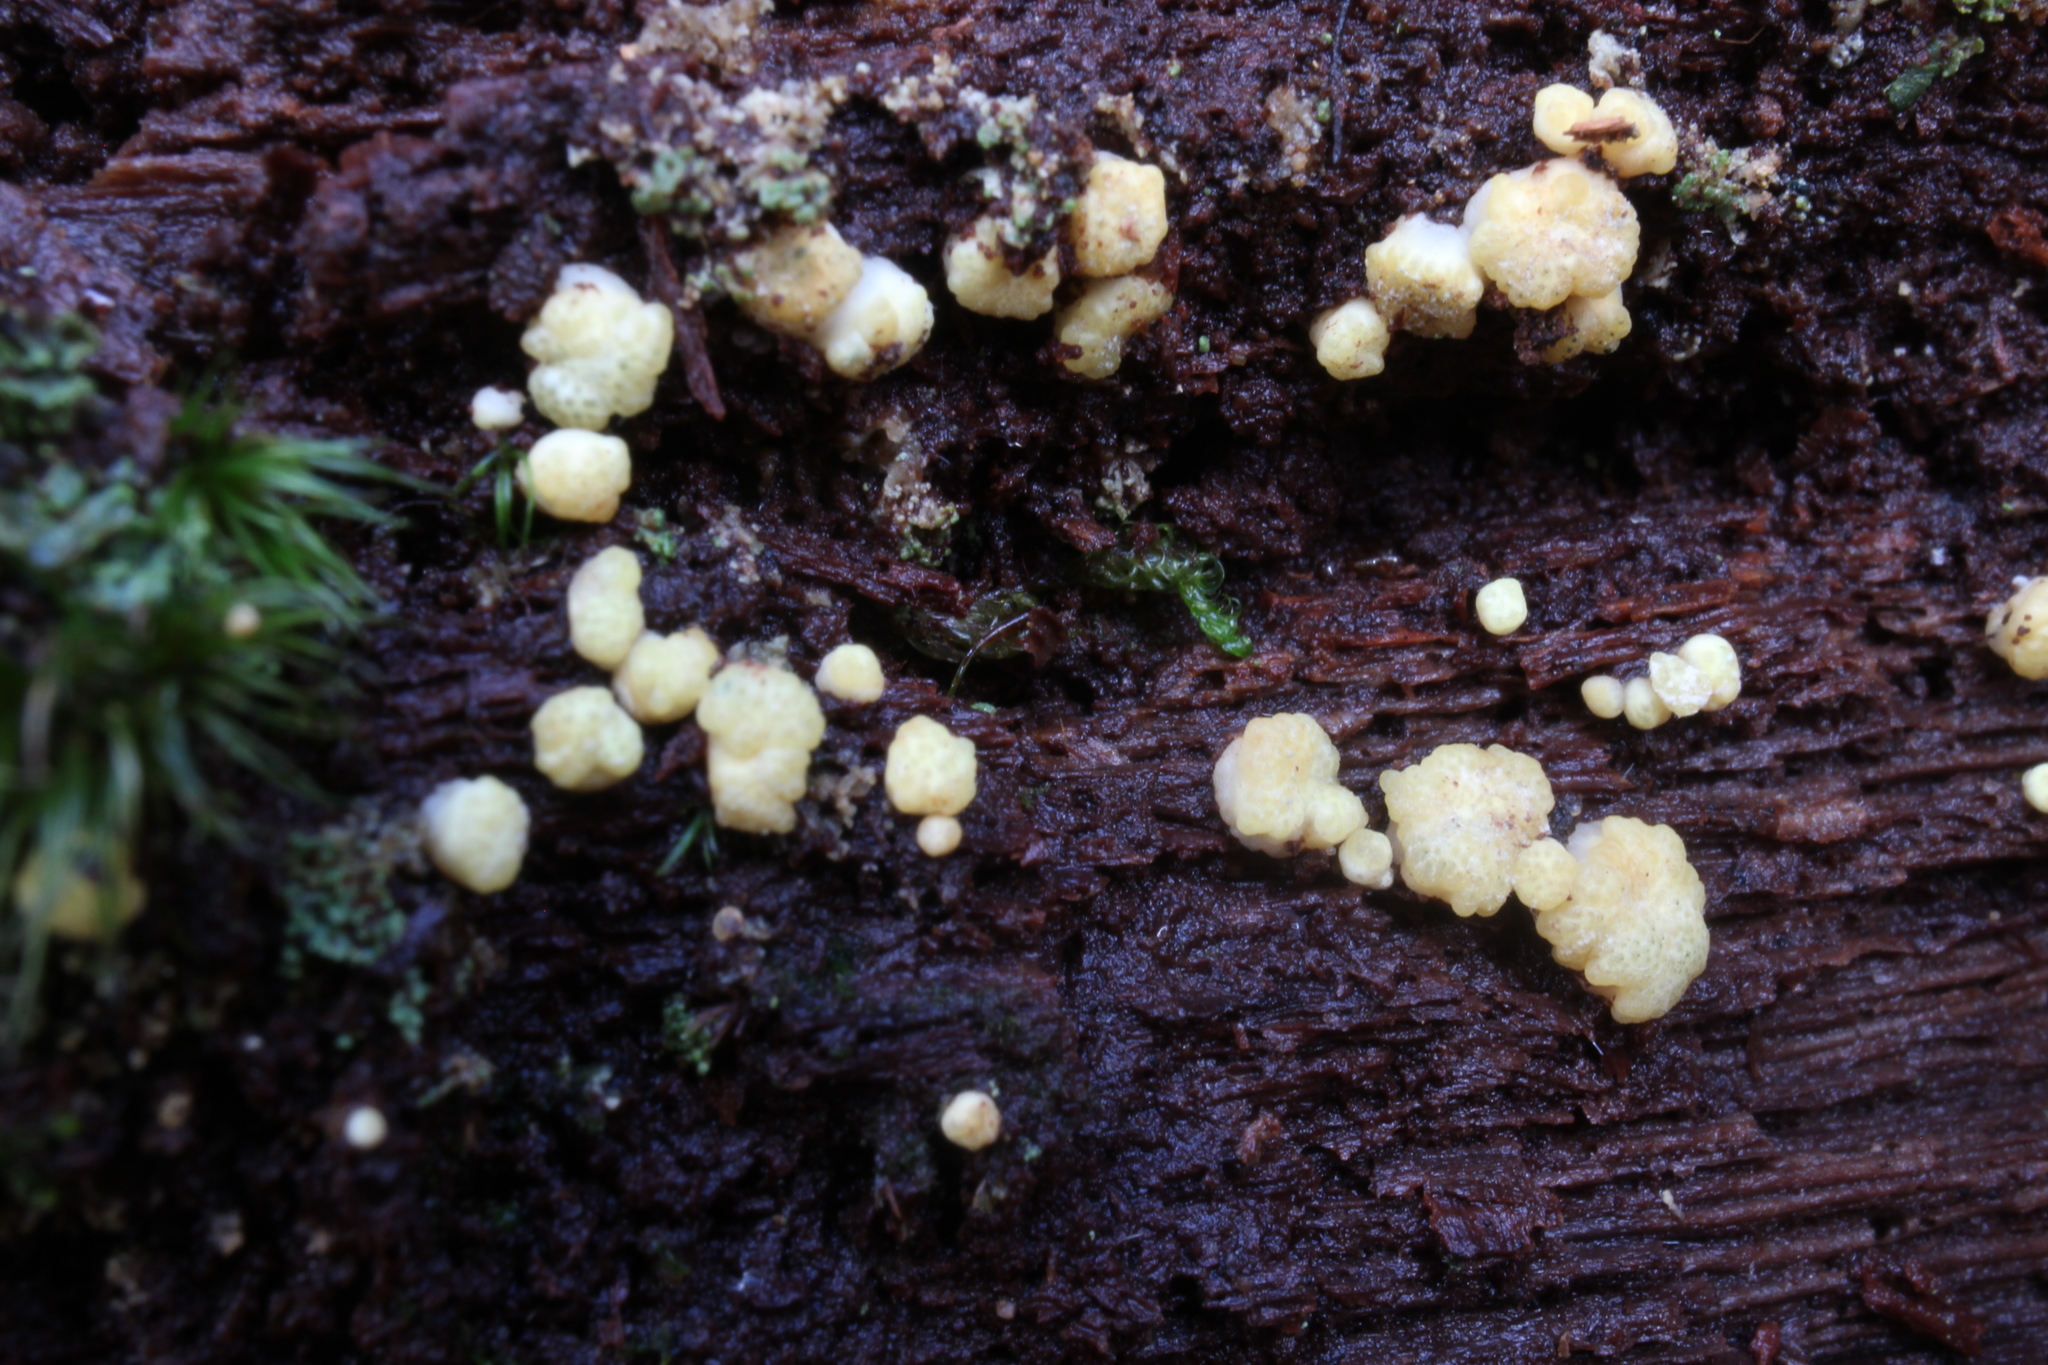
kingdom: Fungi
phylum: Ascomycota
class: Sordariomycetes
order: Hypocreales
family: Hypocreaceae
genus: Trichoderma
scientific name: Trichoderma chromospermum
